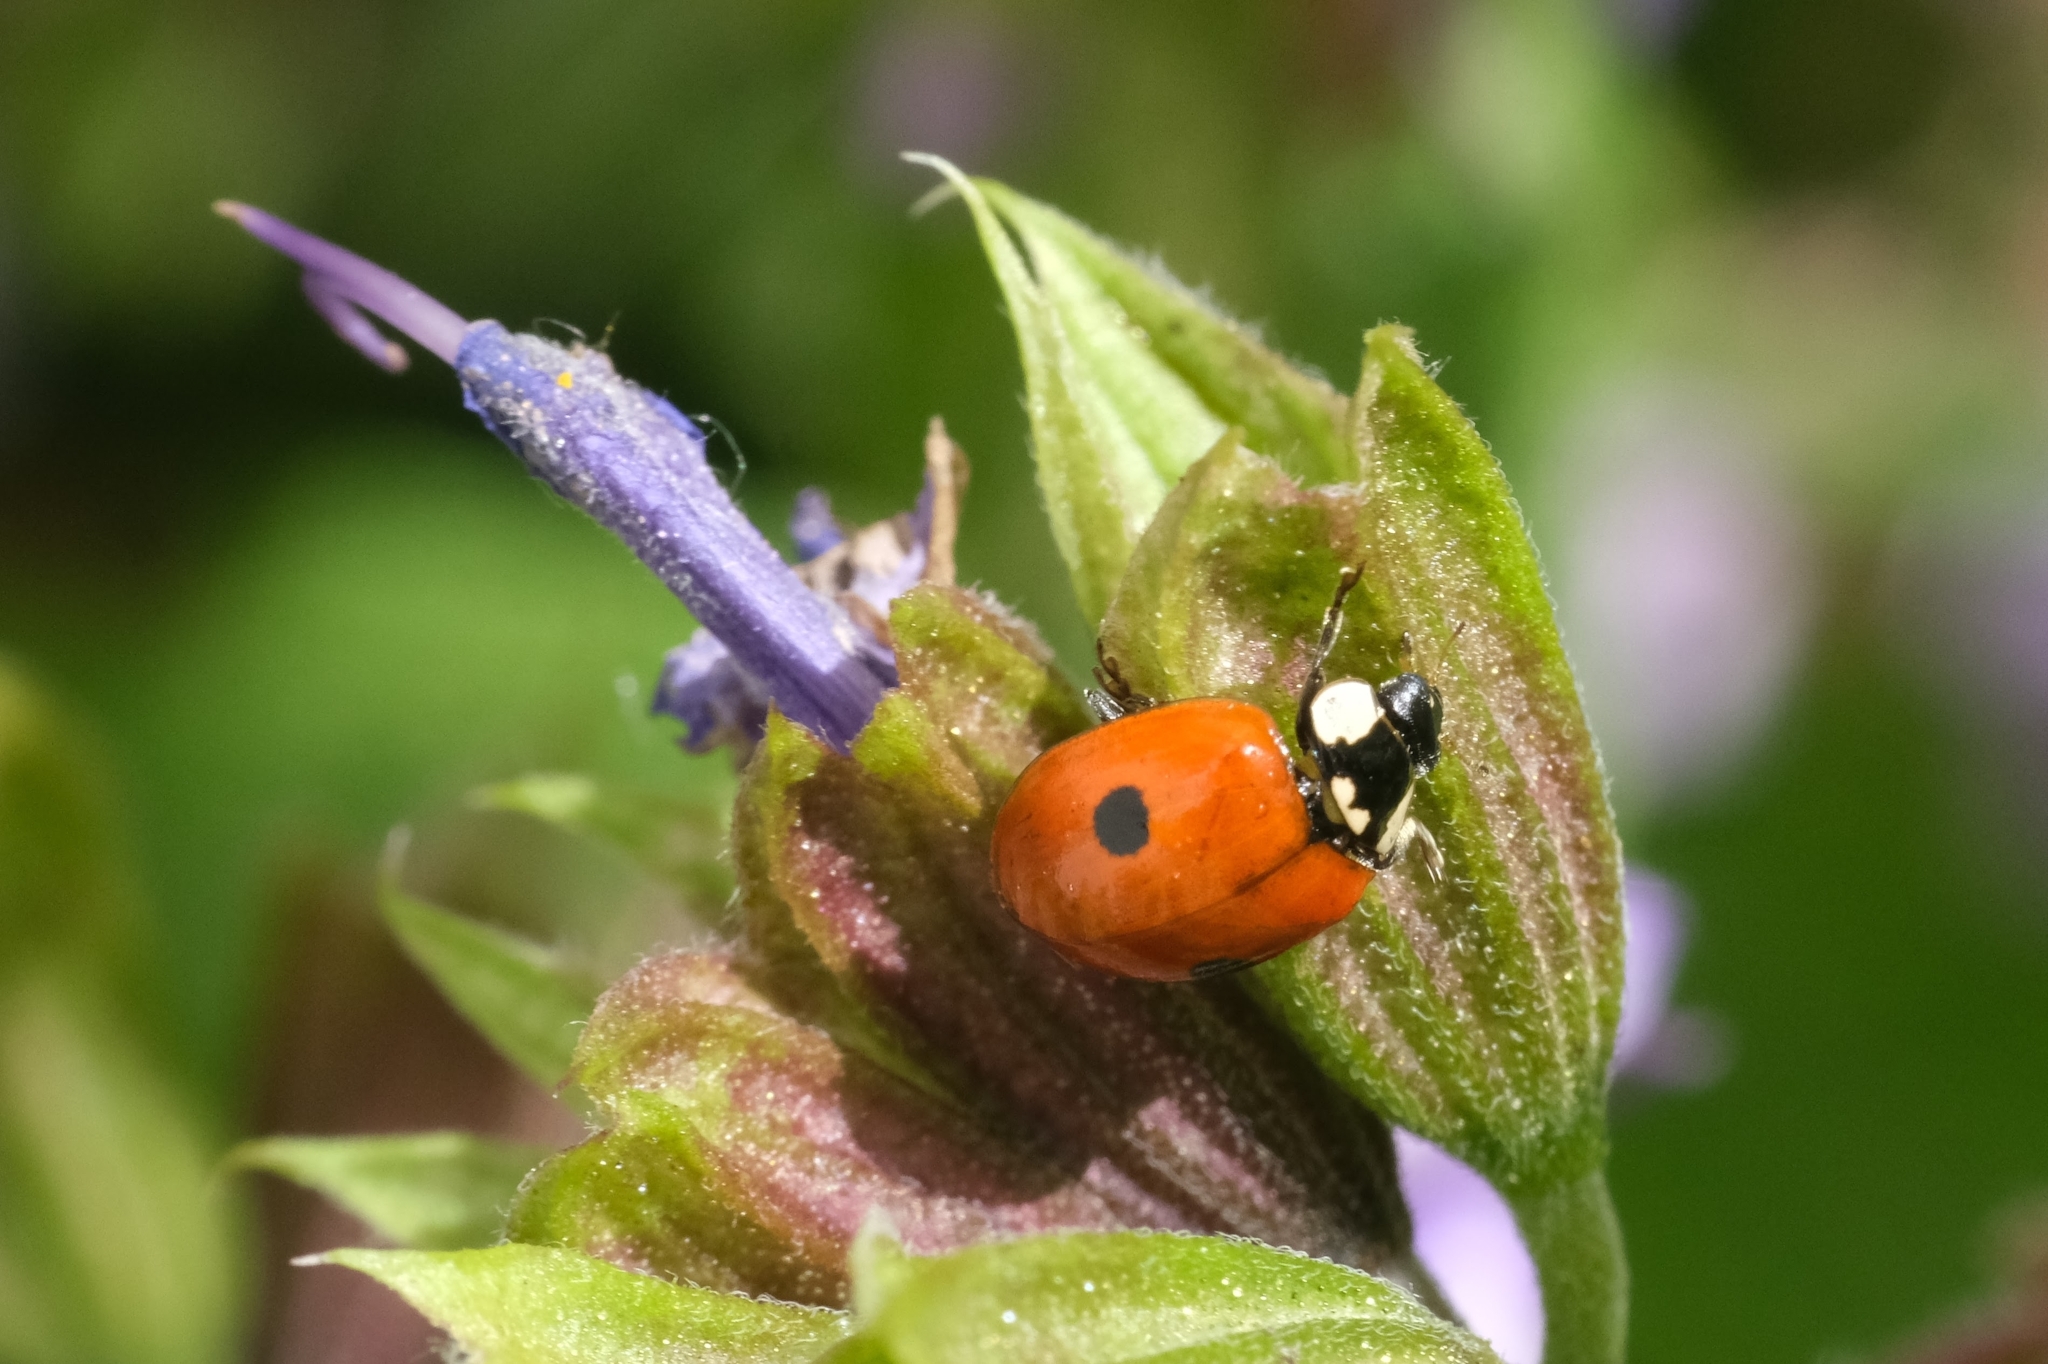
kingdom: Animalia
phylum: Arthropoda
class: Insecta
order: Coleoptera
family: Coccinellidae
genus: Adalia
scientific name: Adalia bipunctata
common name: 2-spot ladybird
